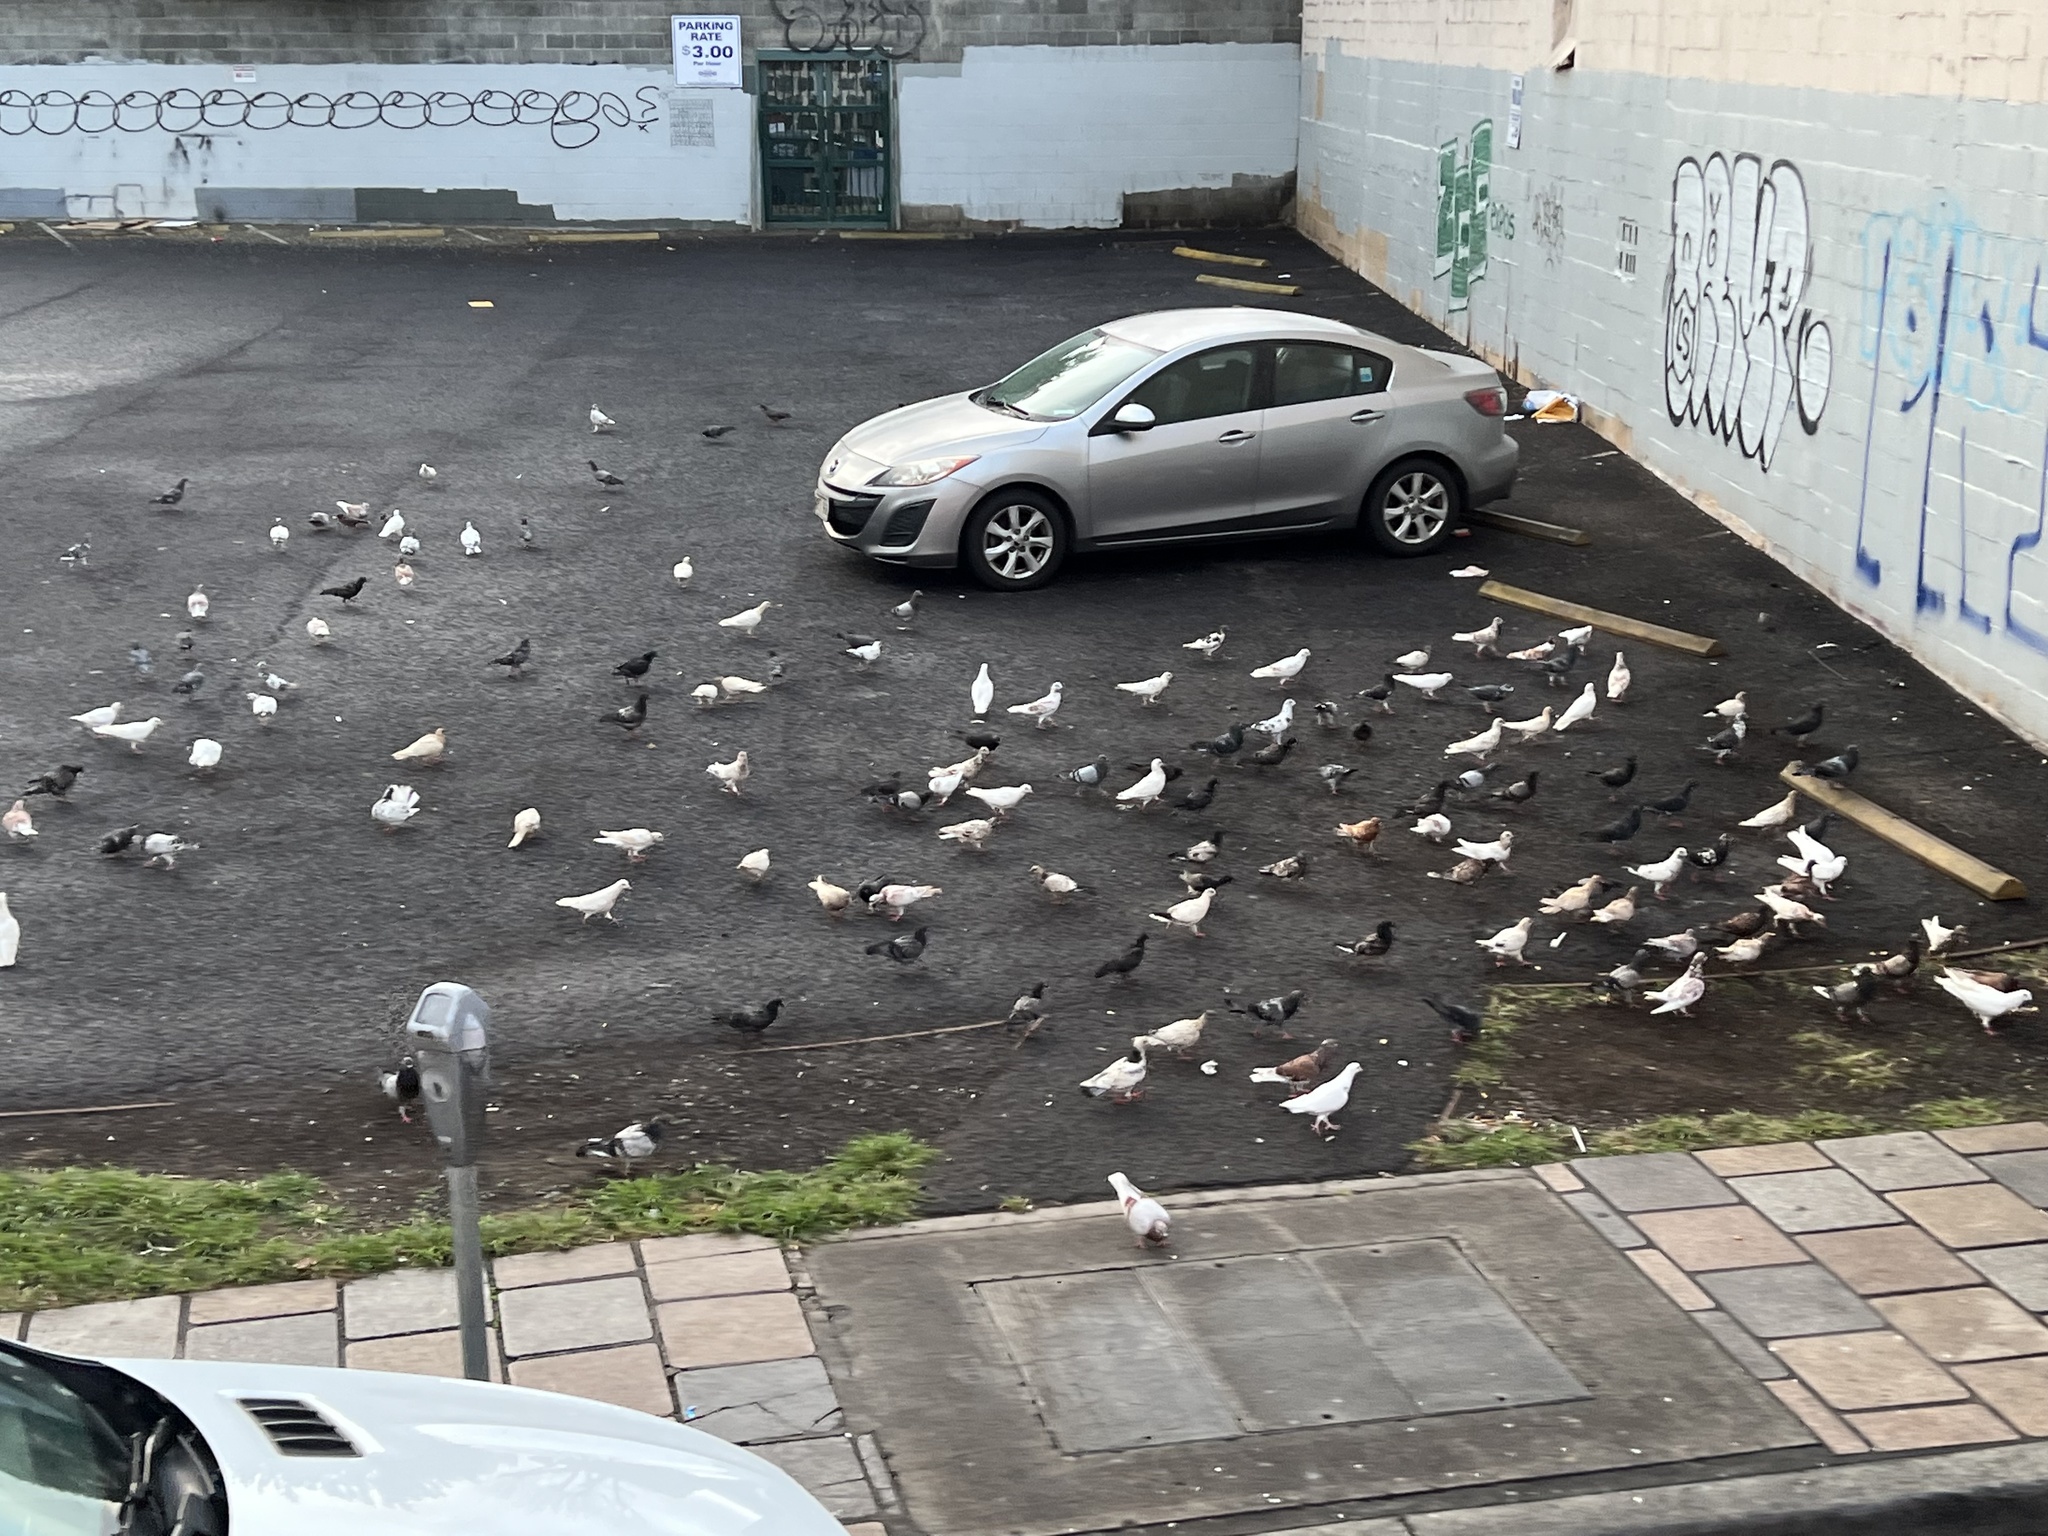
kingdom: Animalia
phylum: Chordata
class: Aves
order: Columbiformes
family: Columbidae
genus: Columba
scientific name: Columba livia
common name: Rock pigeon
